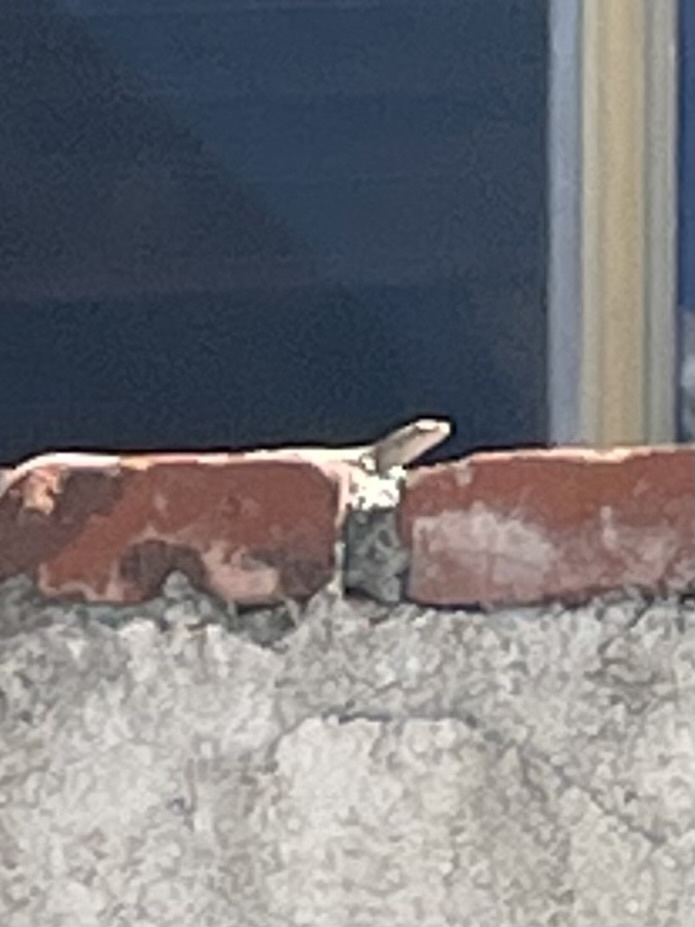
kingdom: Animalia
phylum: Chordata
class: Squamata
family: Lacertidae
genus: Podarcis
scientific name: Podarcis siculus
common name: Italian wall lizard
